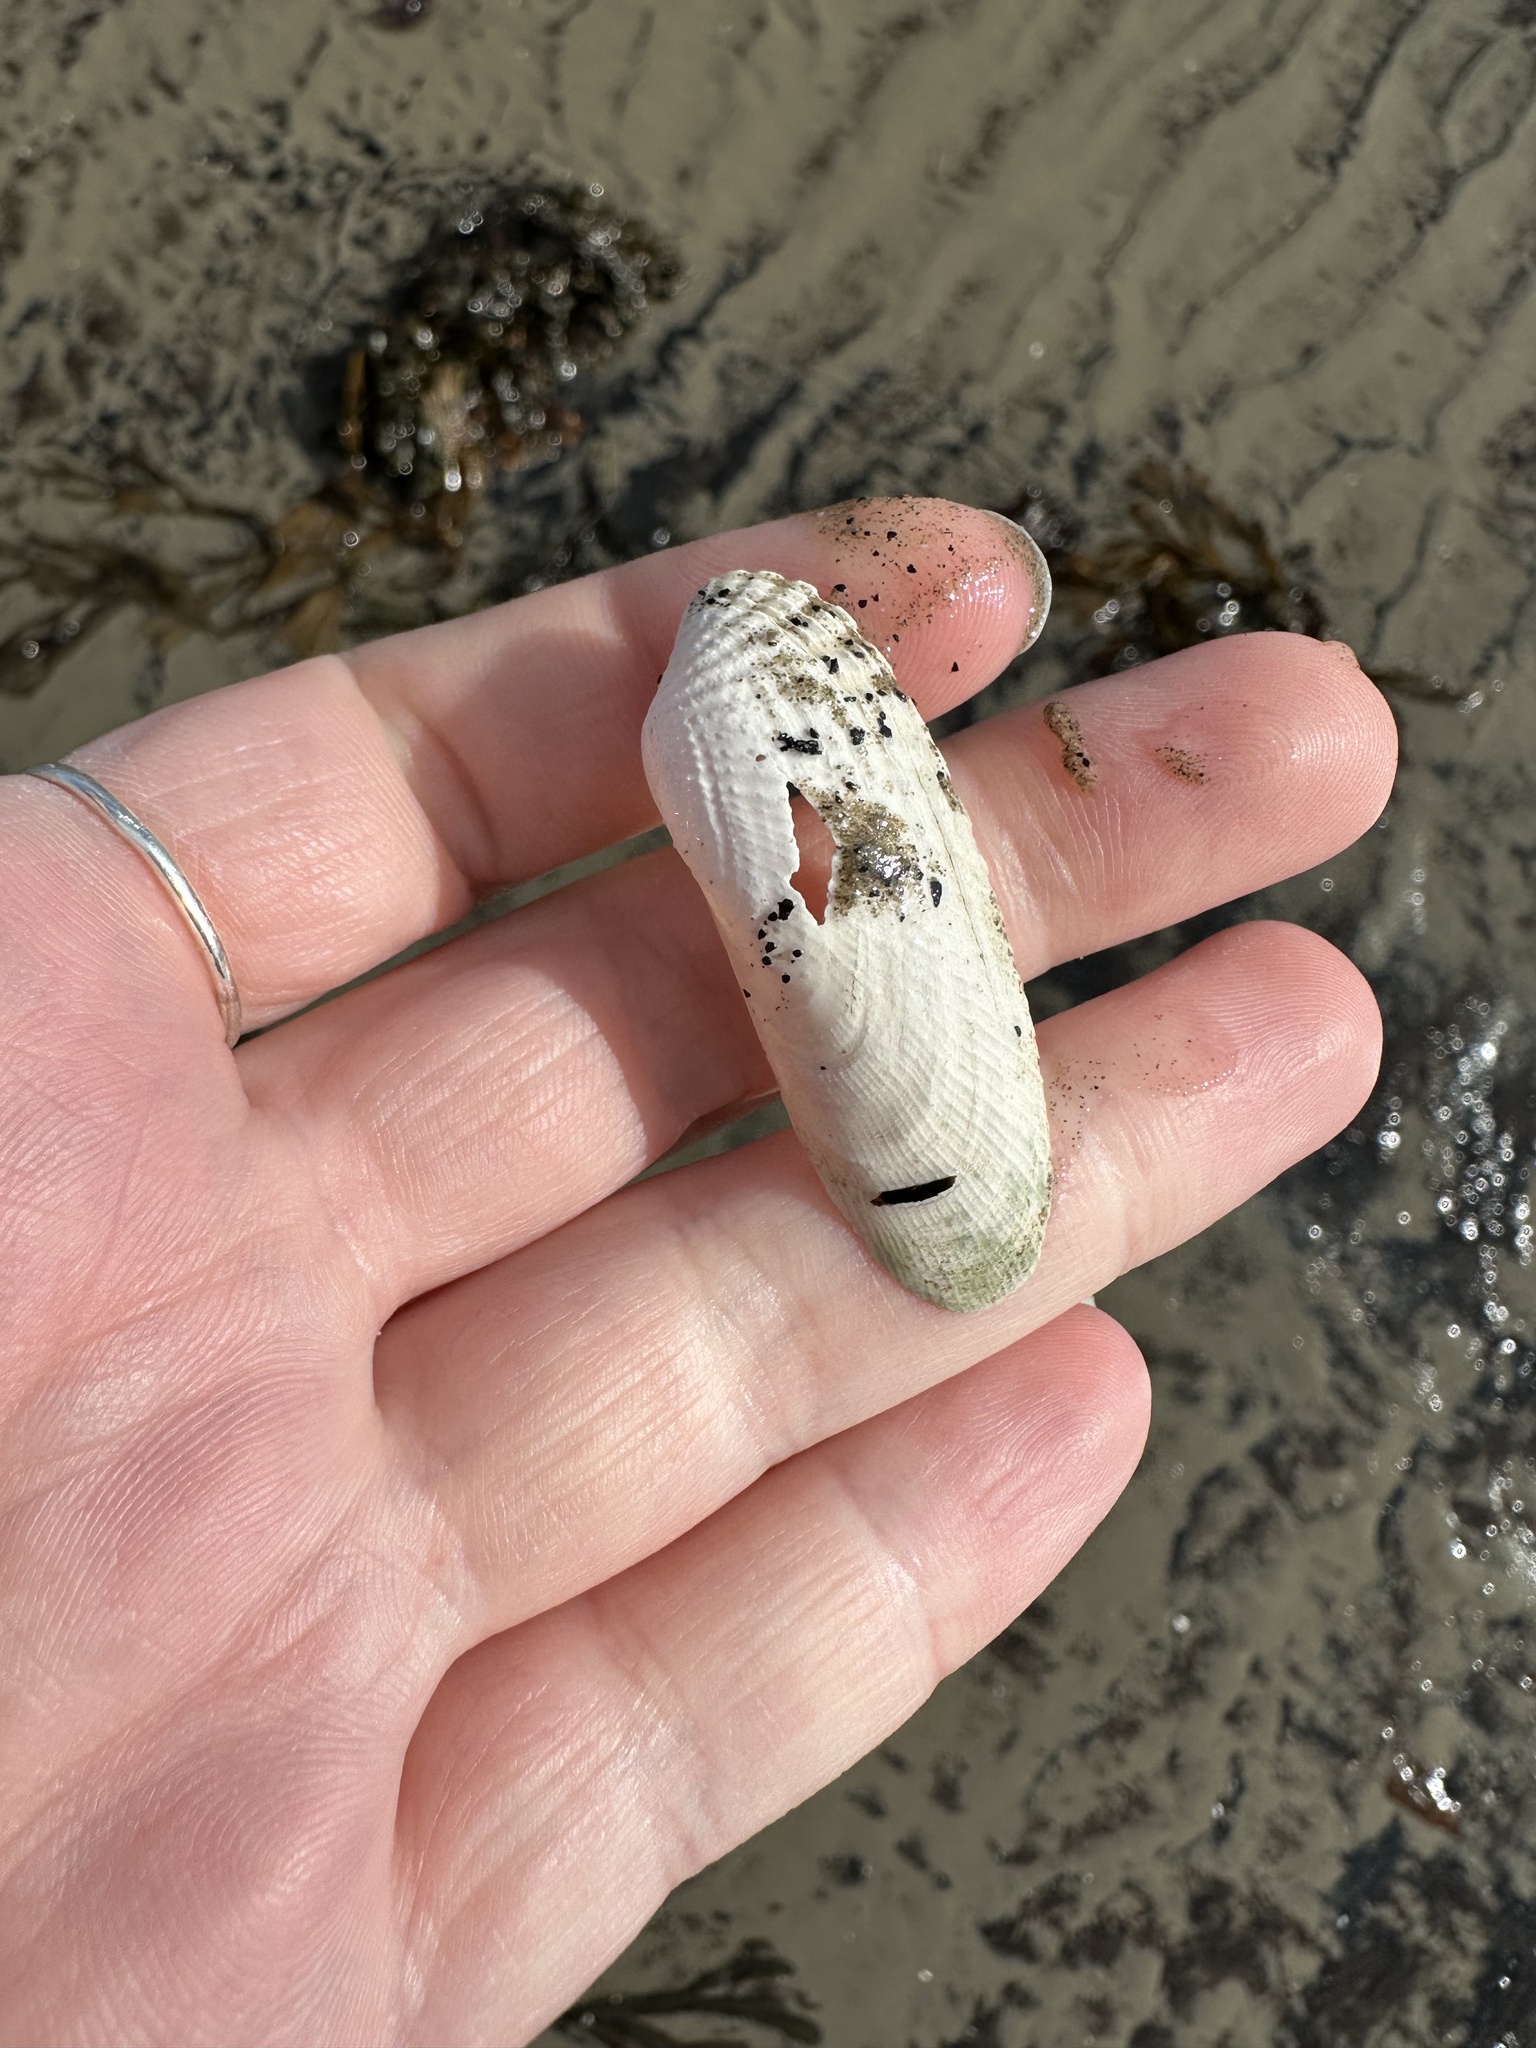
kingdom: Animalia
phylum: Mollusca
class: Bivalvia
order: Venerida
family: Veneridae
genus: Petricolaria
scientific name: Petricolaria pholadiformis
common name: American piddock
